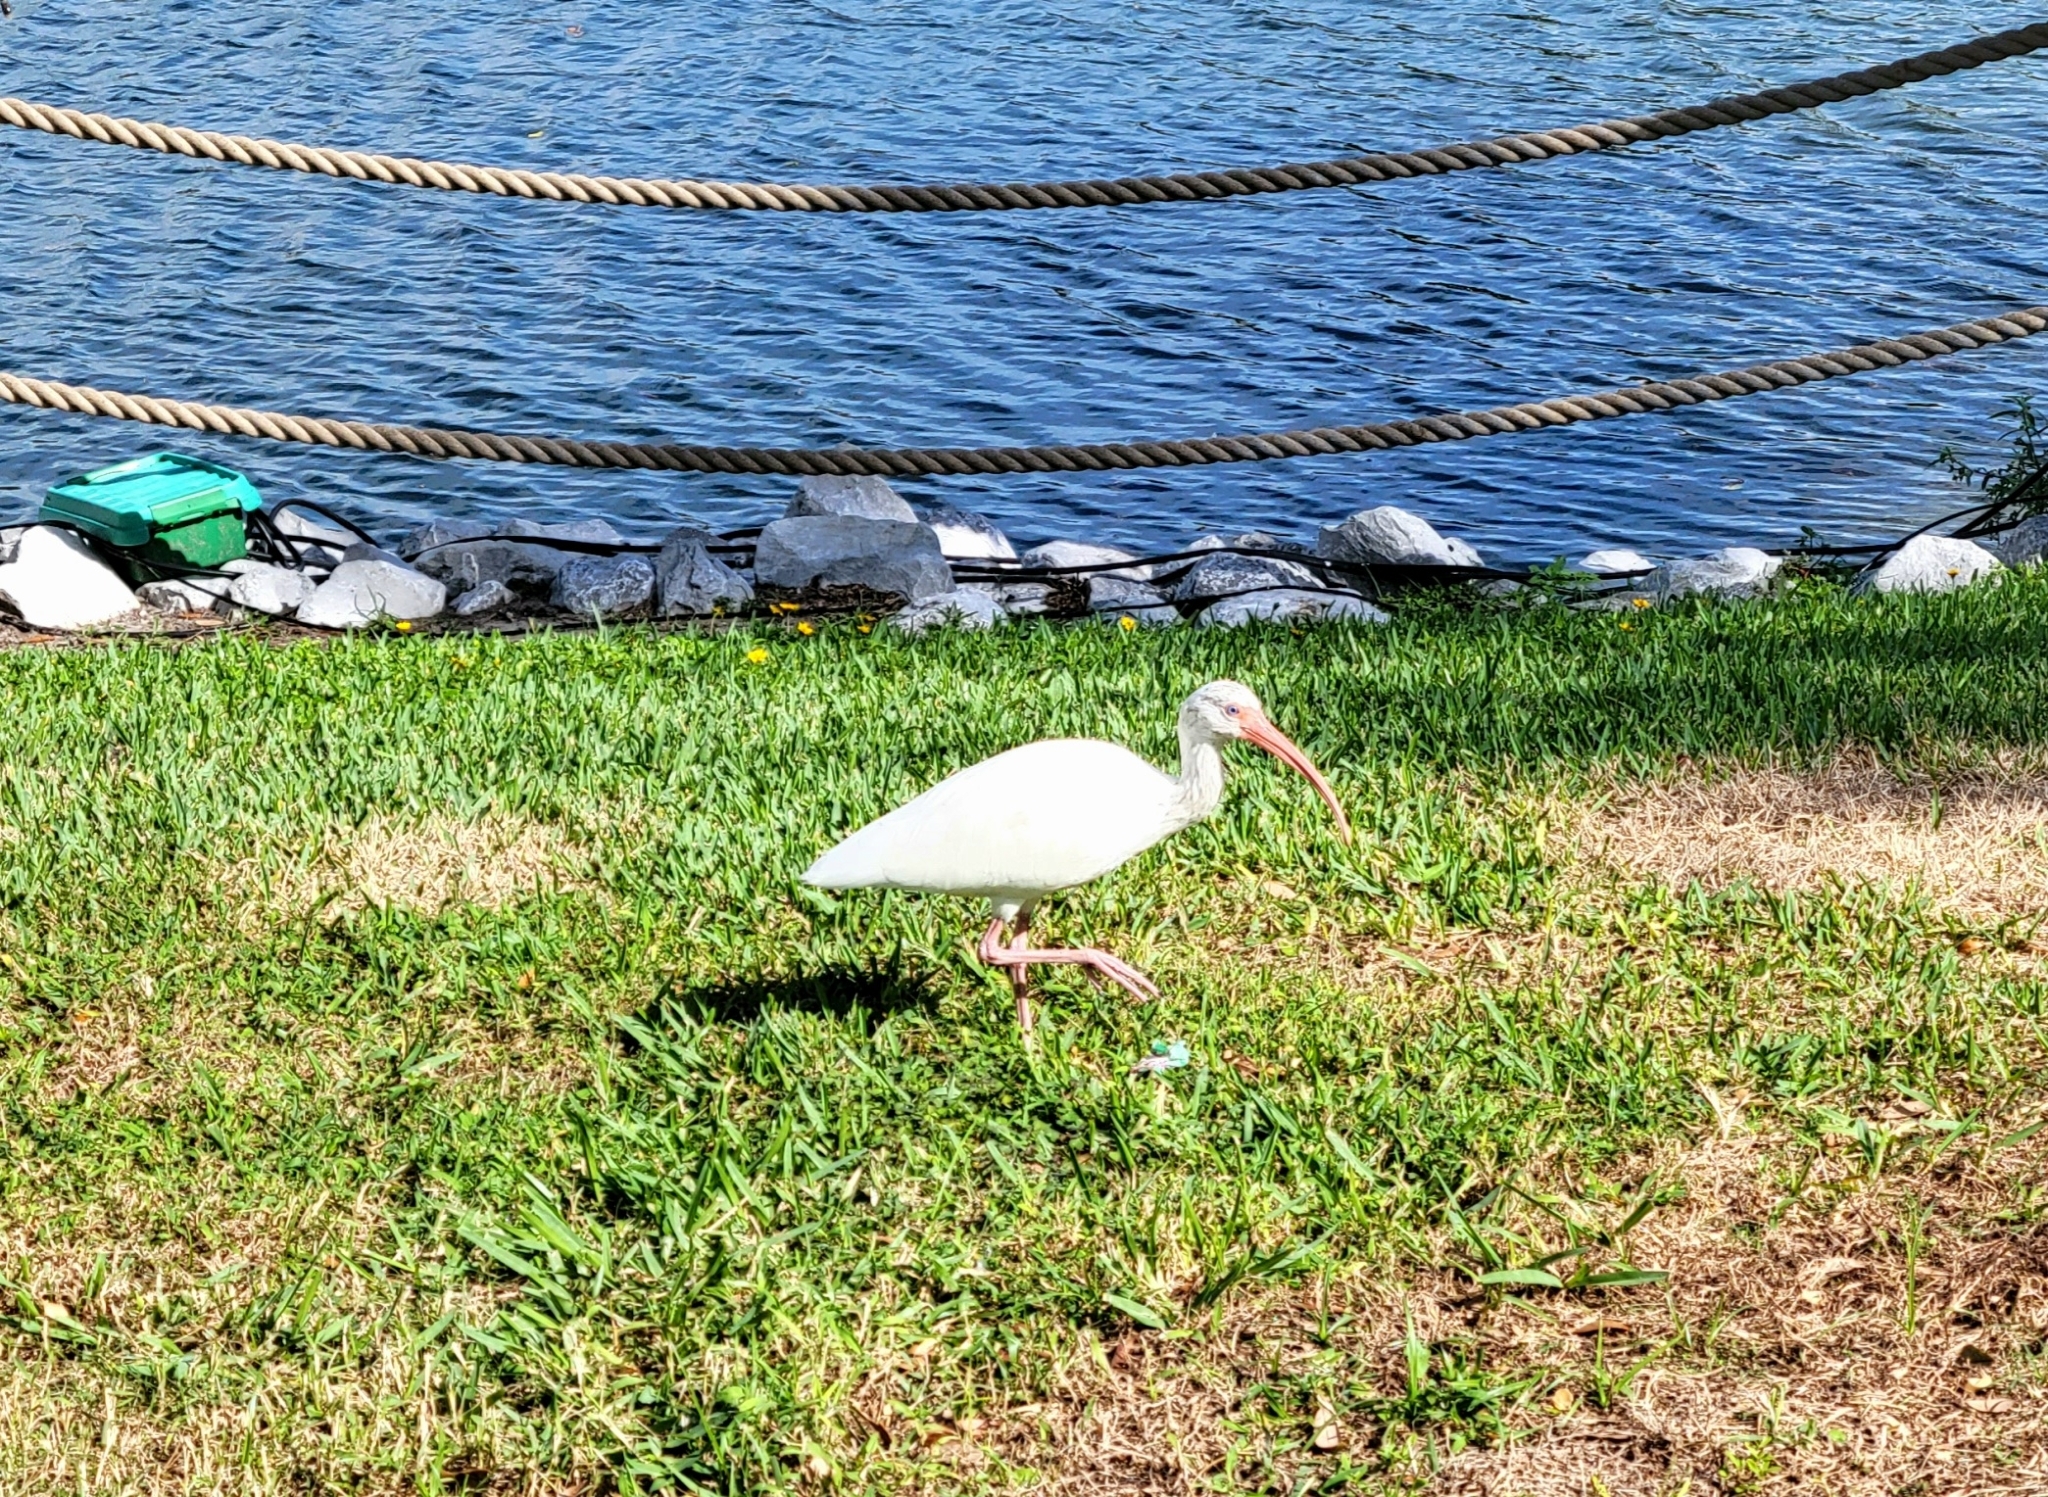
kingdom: Animalia
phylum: Chordata
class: Aves
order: Pelecaniformes
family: Threskiornithidae
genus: Eudocimus
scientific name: Eudocimus albus
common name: White ibis
